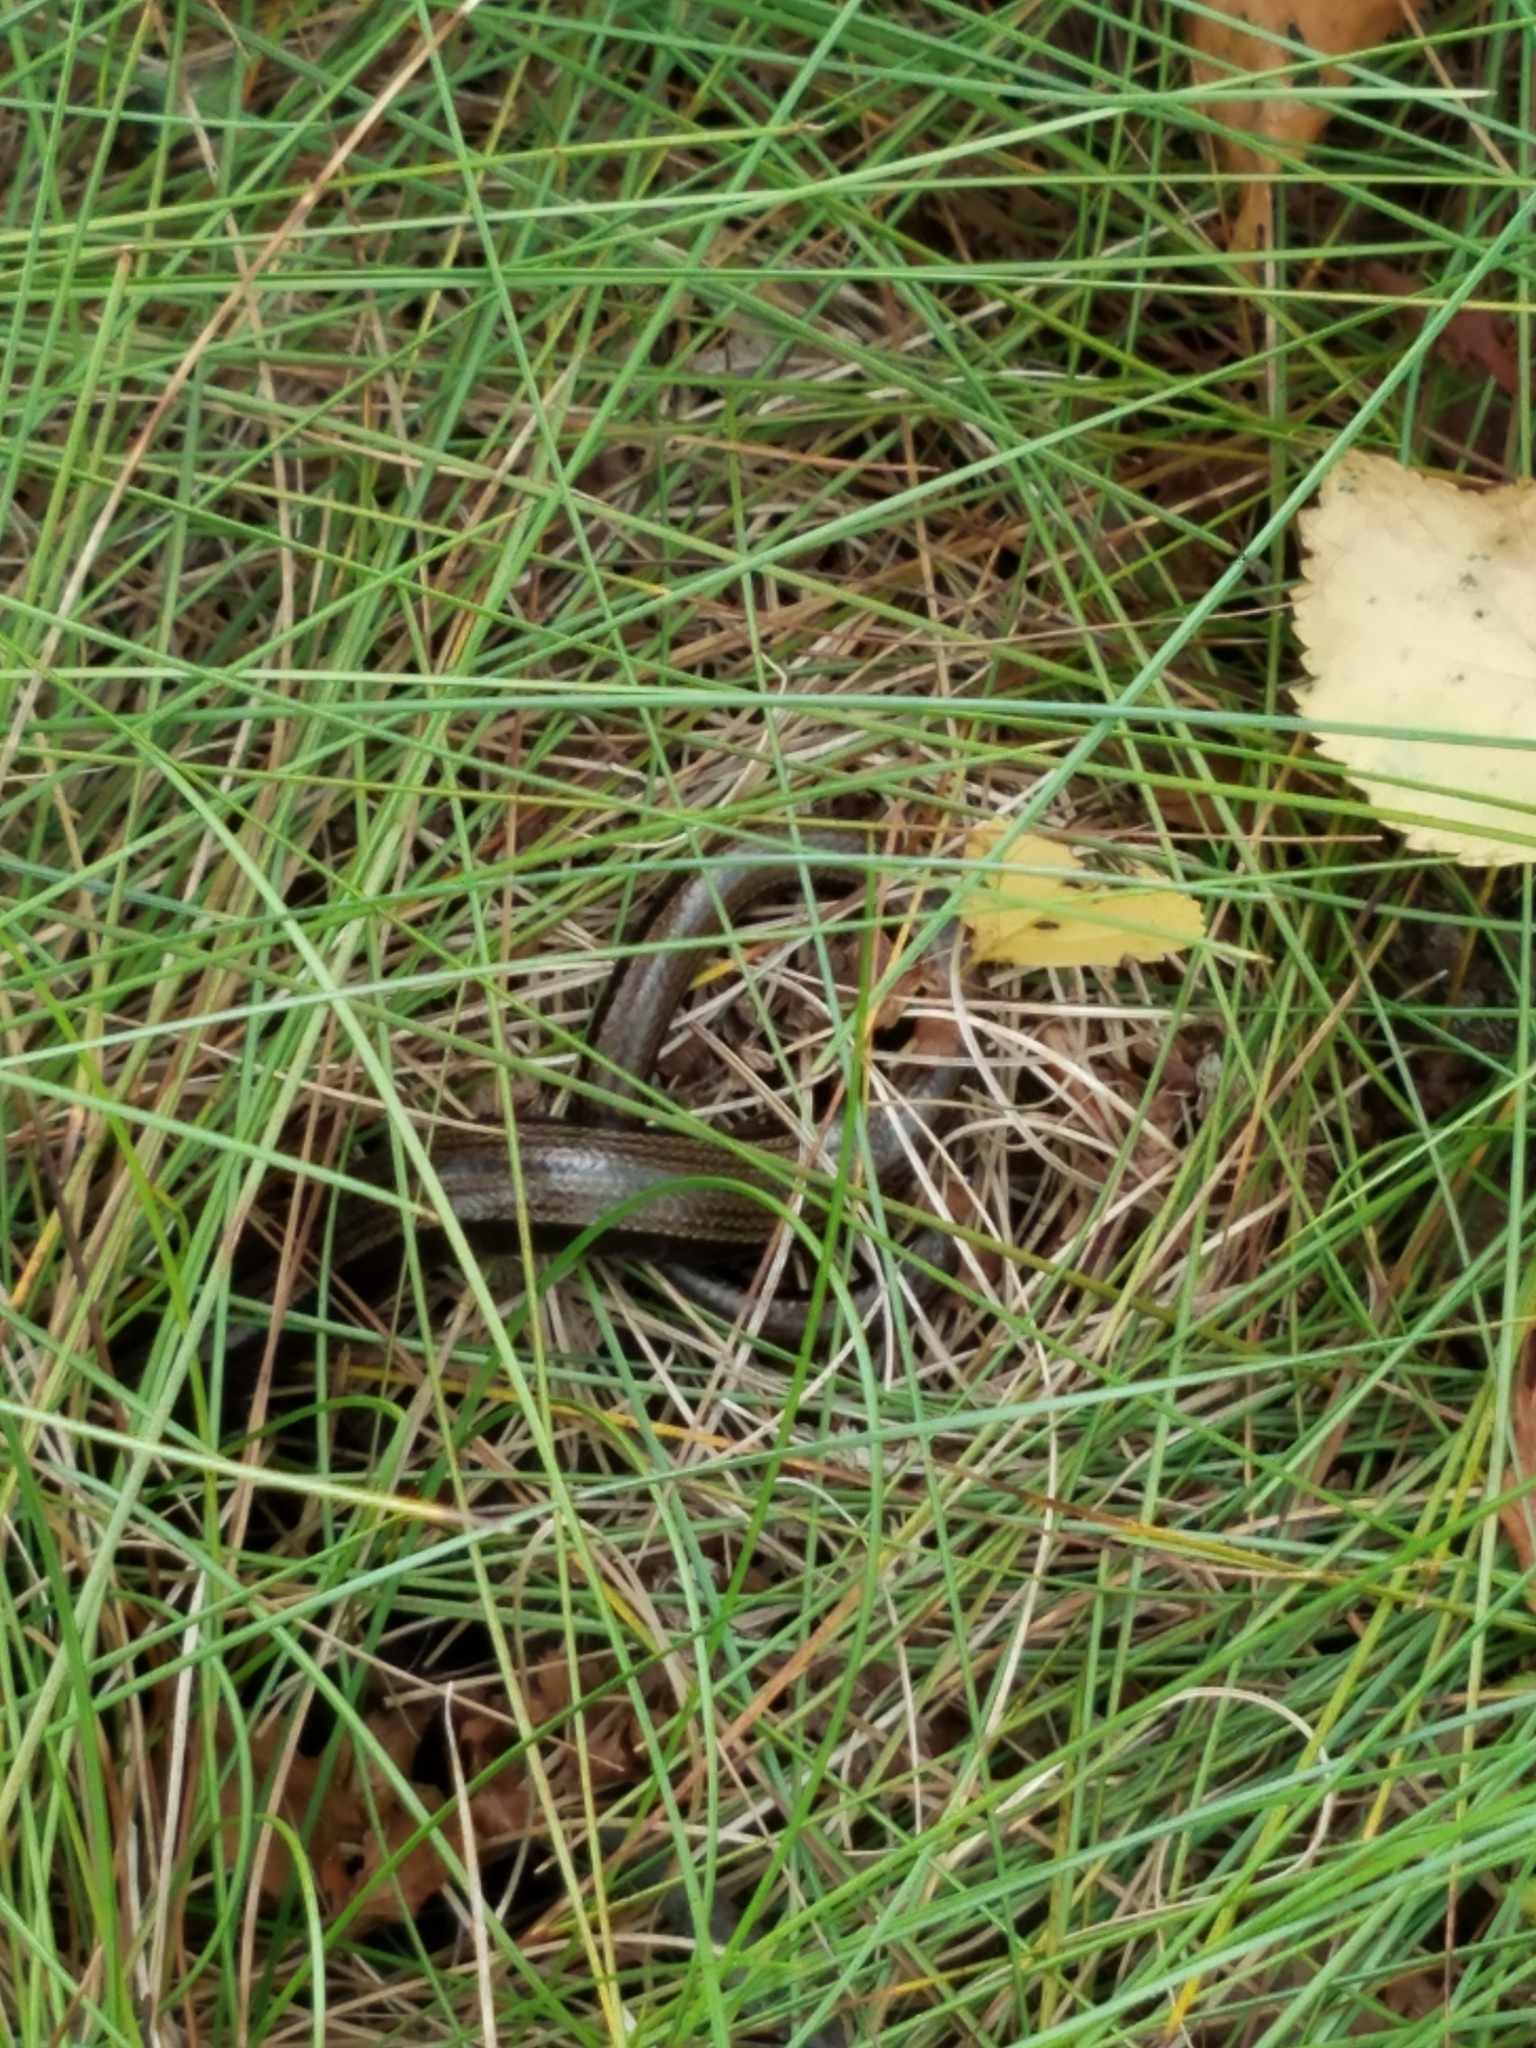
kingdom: Animalia
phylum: Chordata
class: Squamata
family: Anguidae
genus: Anguis
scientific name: Anguis fragilis
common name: Slow worm
